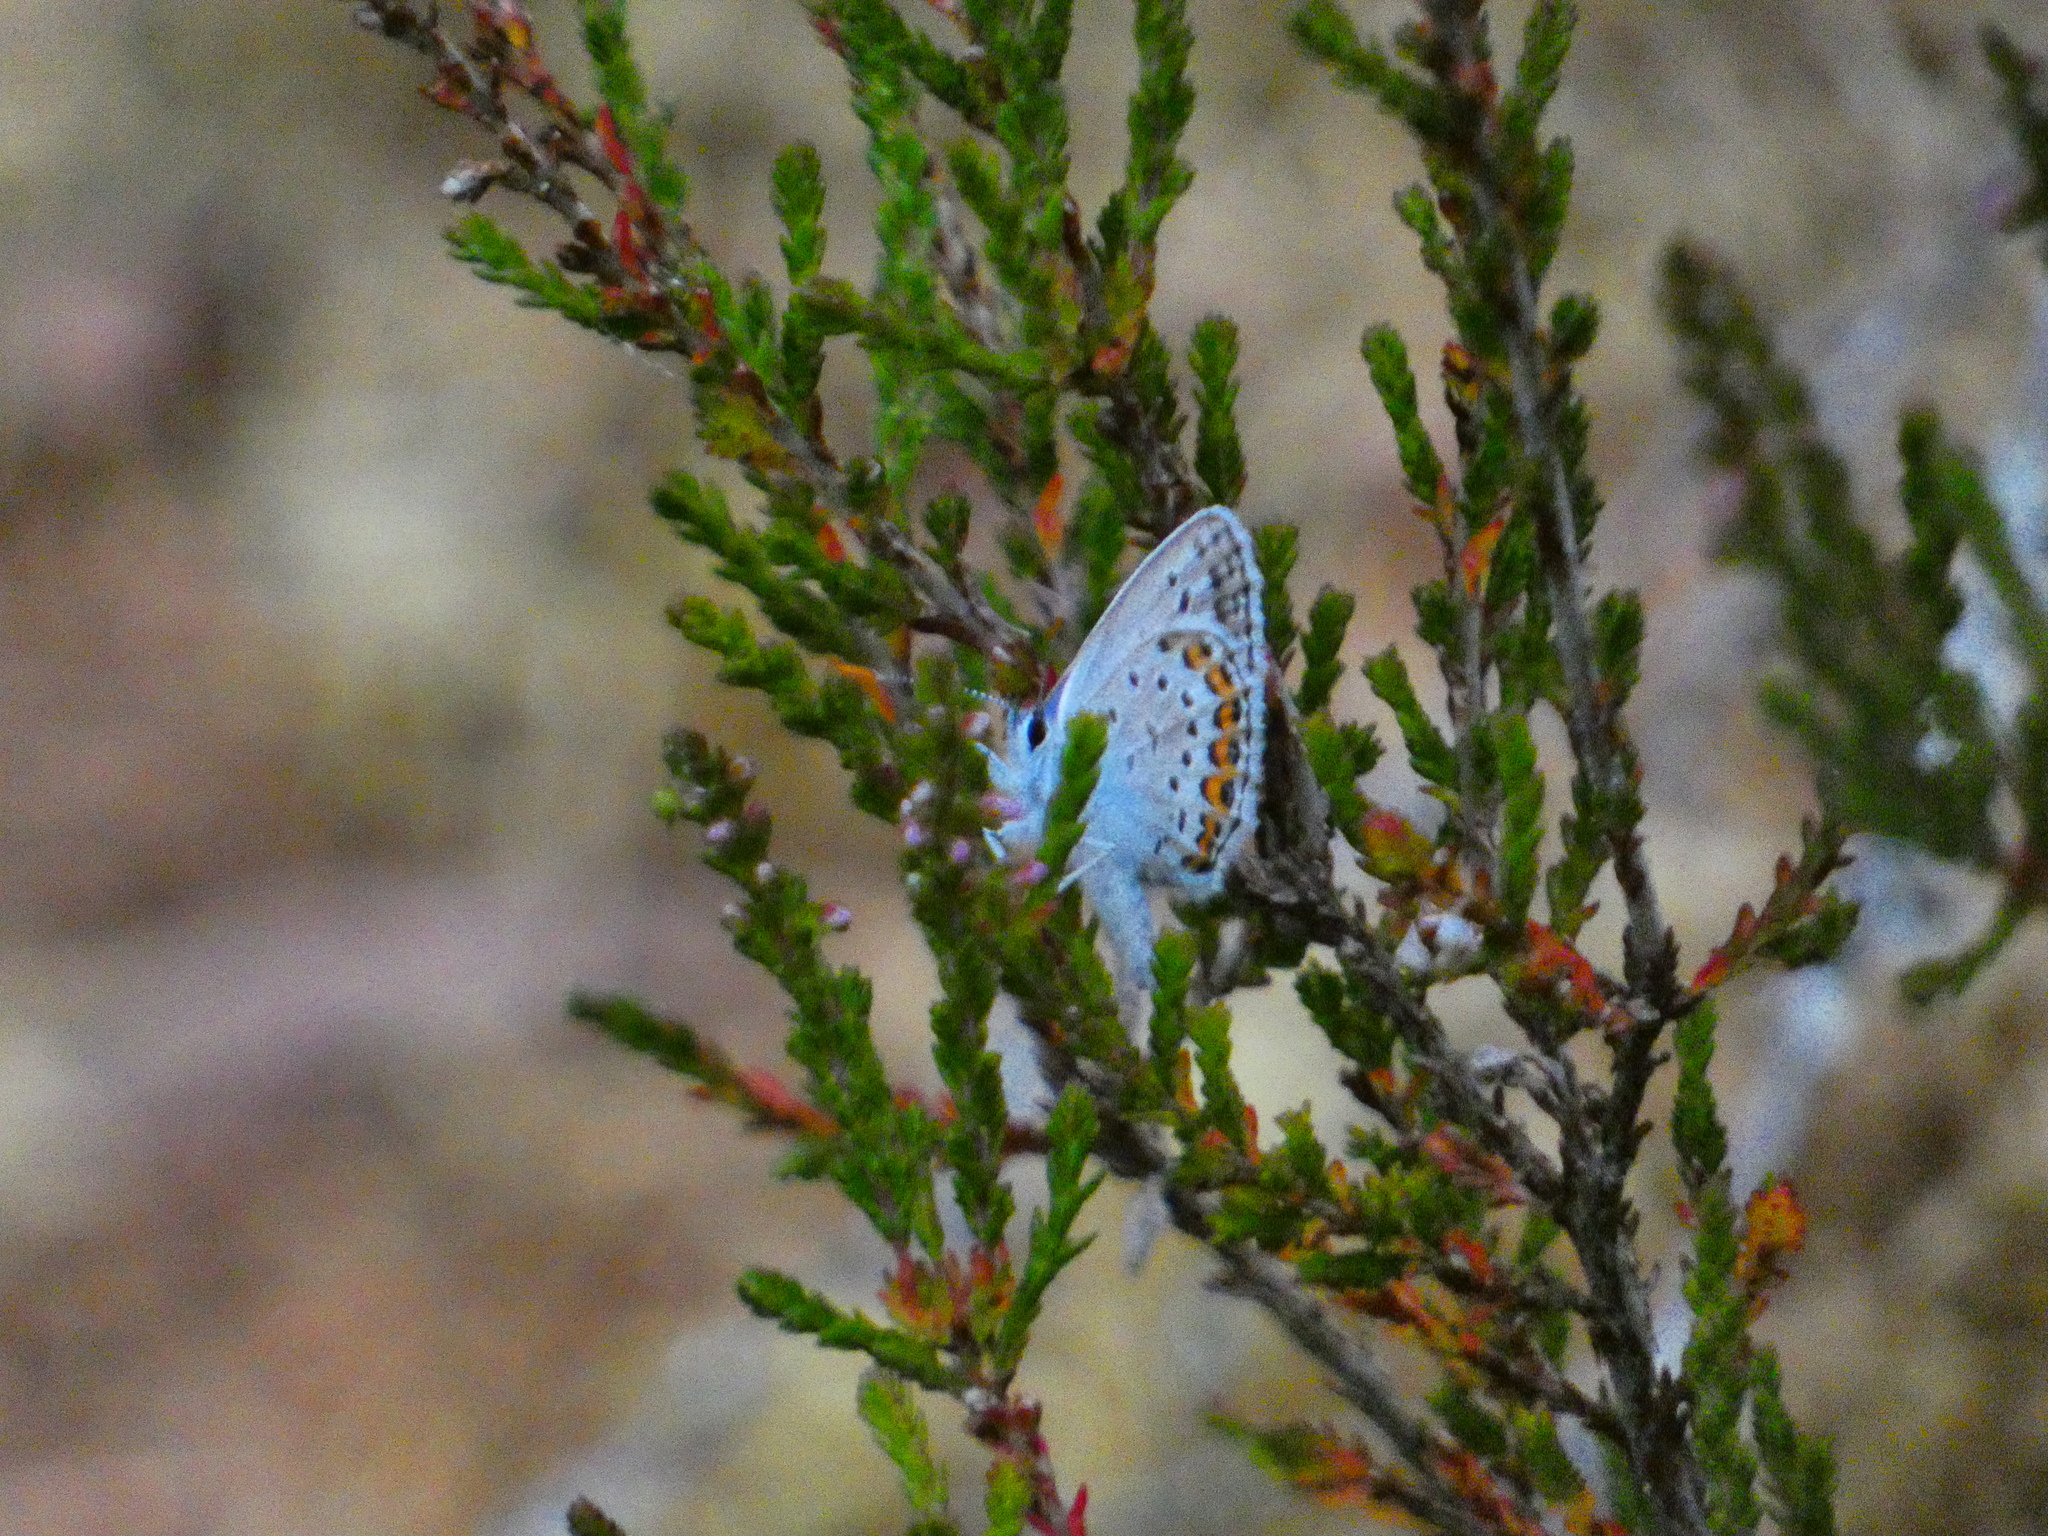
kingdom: Animalia
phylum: Arthropoda
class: Insecta
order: Lepidoptera
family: Lycaenidae
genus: Plebejus
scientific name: Plebejus argus
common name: Silver-studded blue
